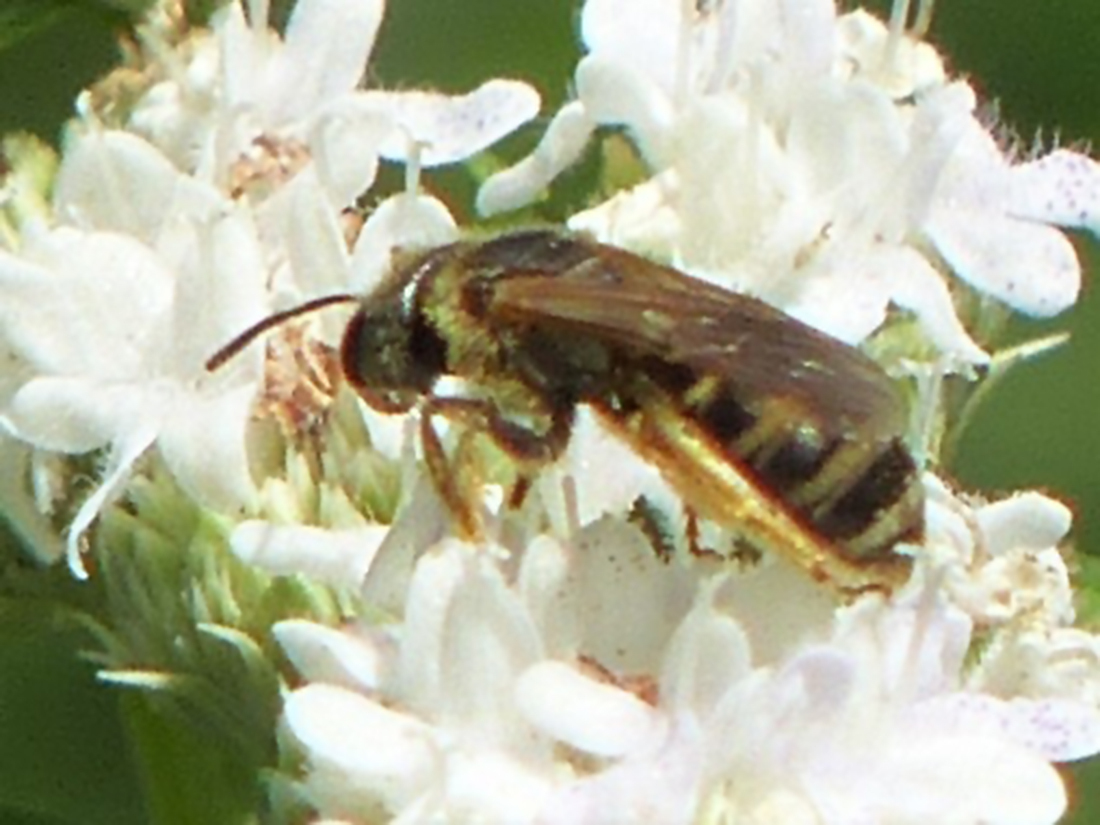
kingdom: Animalia
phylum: Arthropoda
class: Insecta
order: Hymenoptera
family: Halictidae
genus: Halictus
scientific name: Halictus ligatus
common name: Ligated furrow bee
